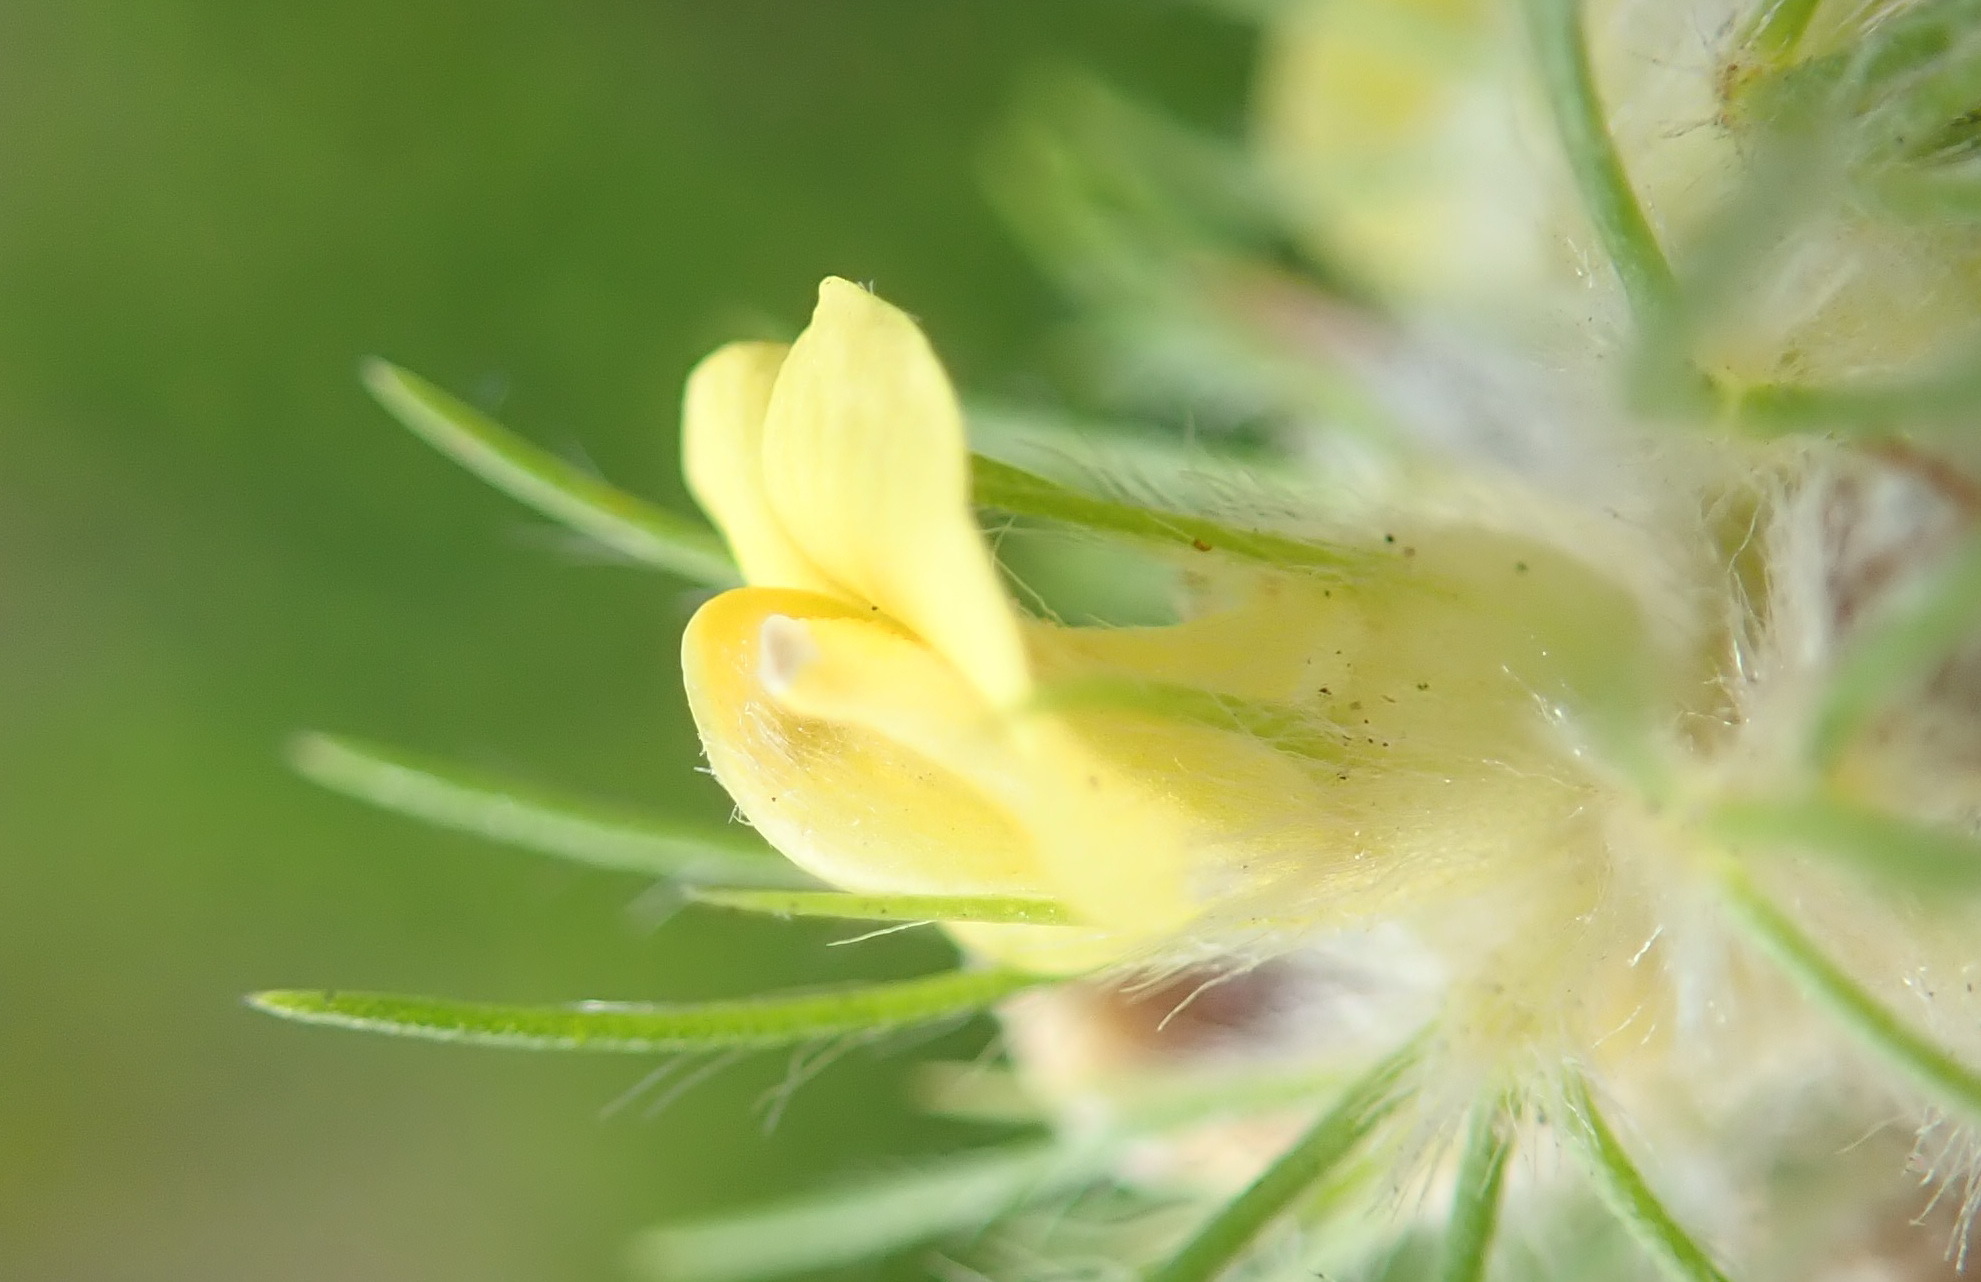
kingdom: Plantae
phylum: Tracheophyta
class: Magnoliopsida
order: Fabales
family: Fabaceae
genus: Aspalathus
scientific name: Aspalathus alopecurus
